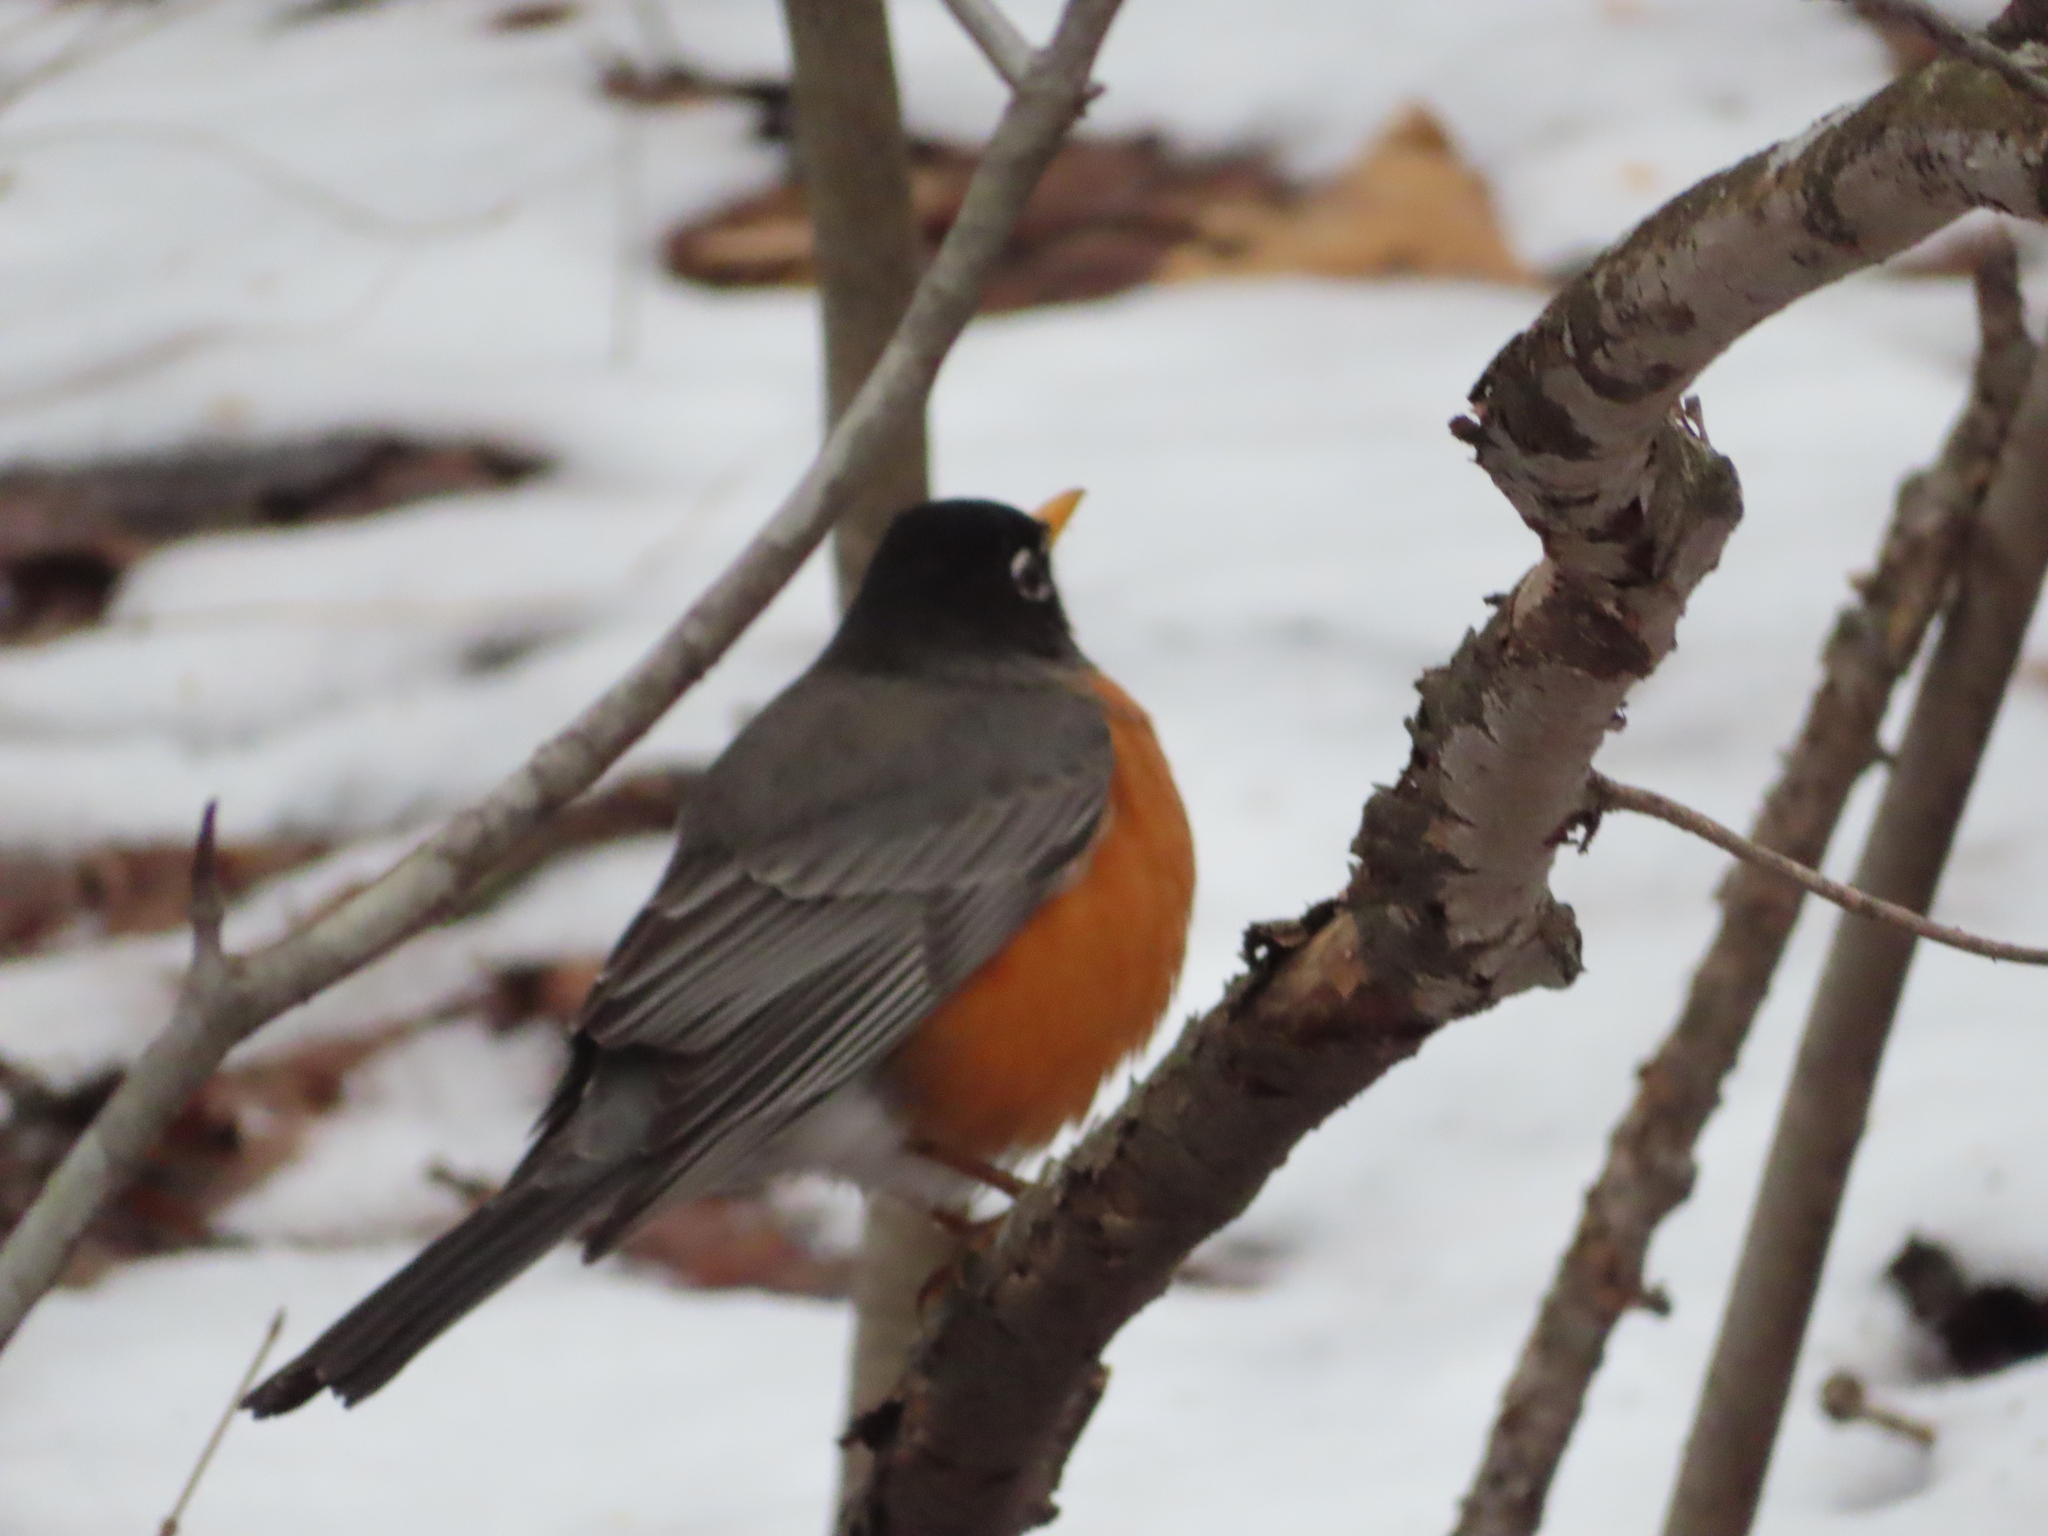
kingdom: Animalia
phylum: Chordata
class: Aves
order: Passeriformes
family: Turdidae
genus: Turdus
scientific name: Turdus migratorius
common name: American robin
